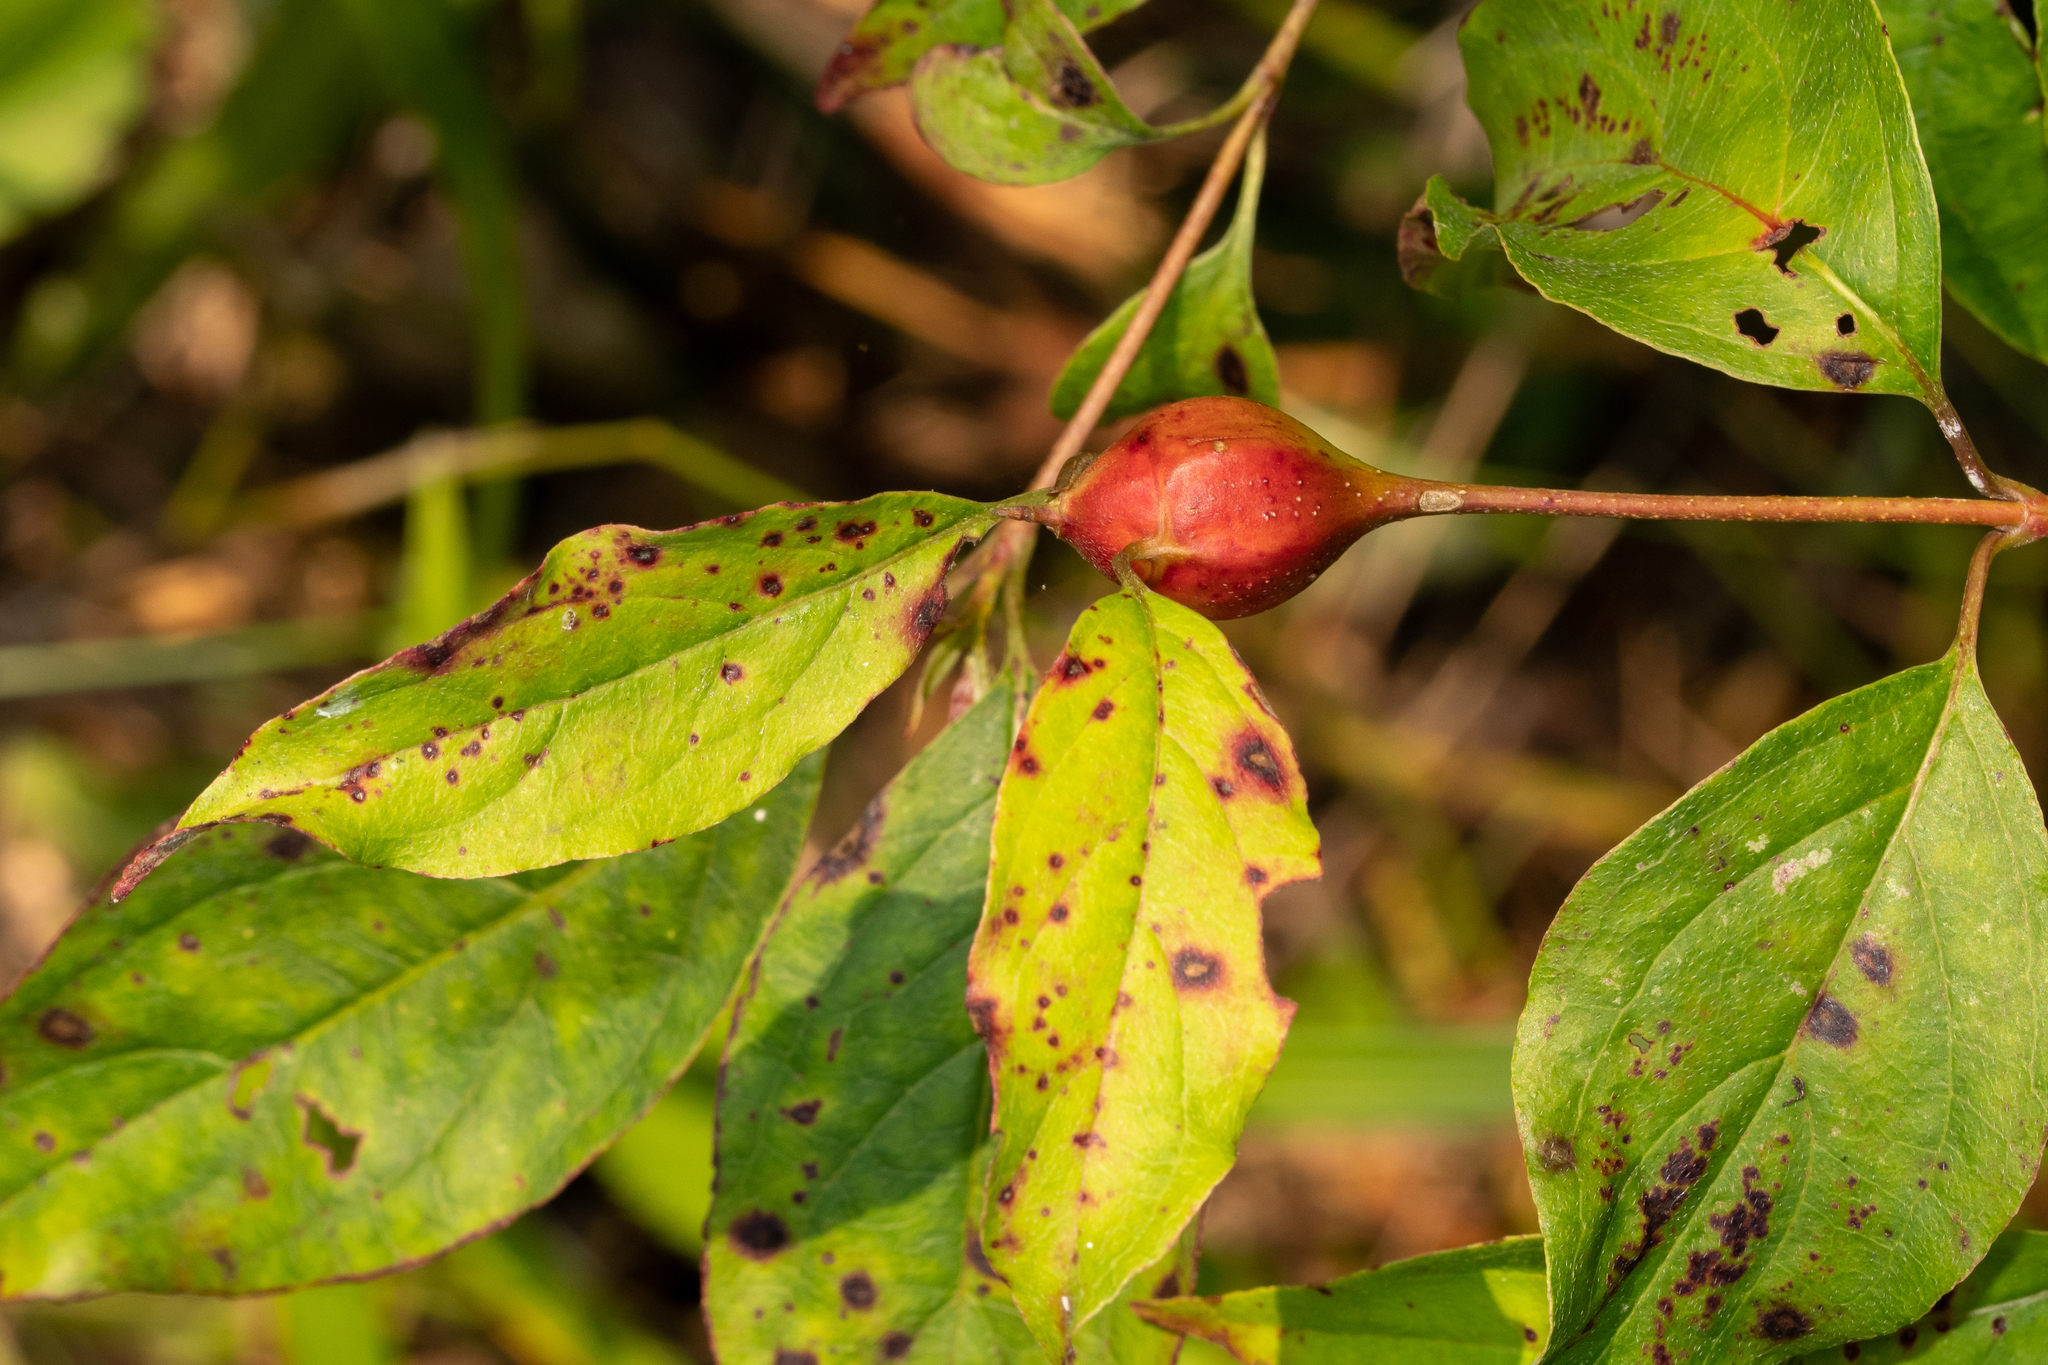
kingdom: Animalia
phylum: Arthropoda
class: Insecta
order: Diptera
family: Cecidomyiidae
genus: Resseliella
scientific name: Resseliella clavula
